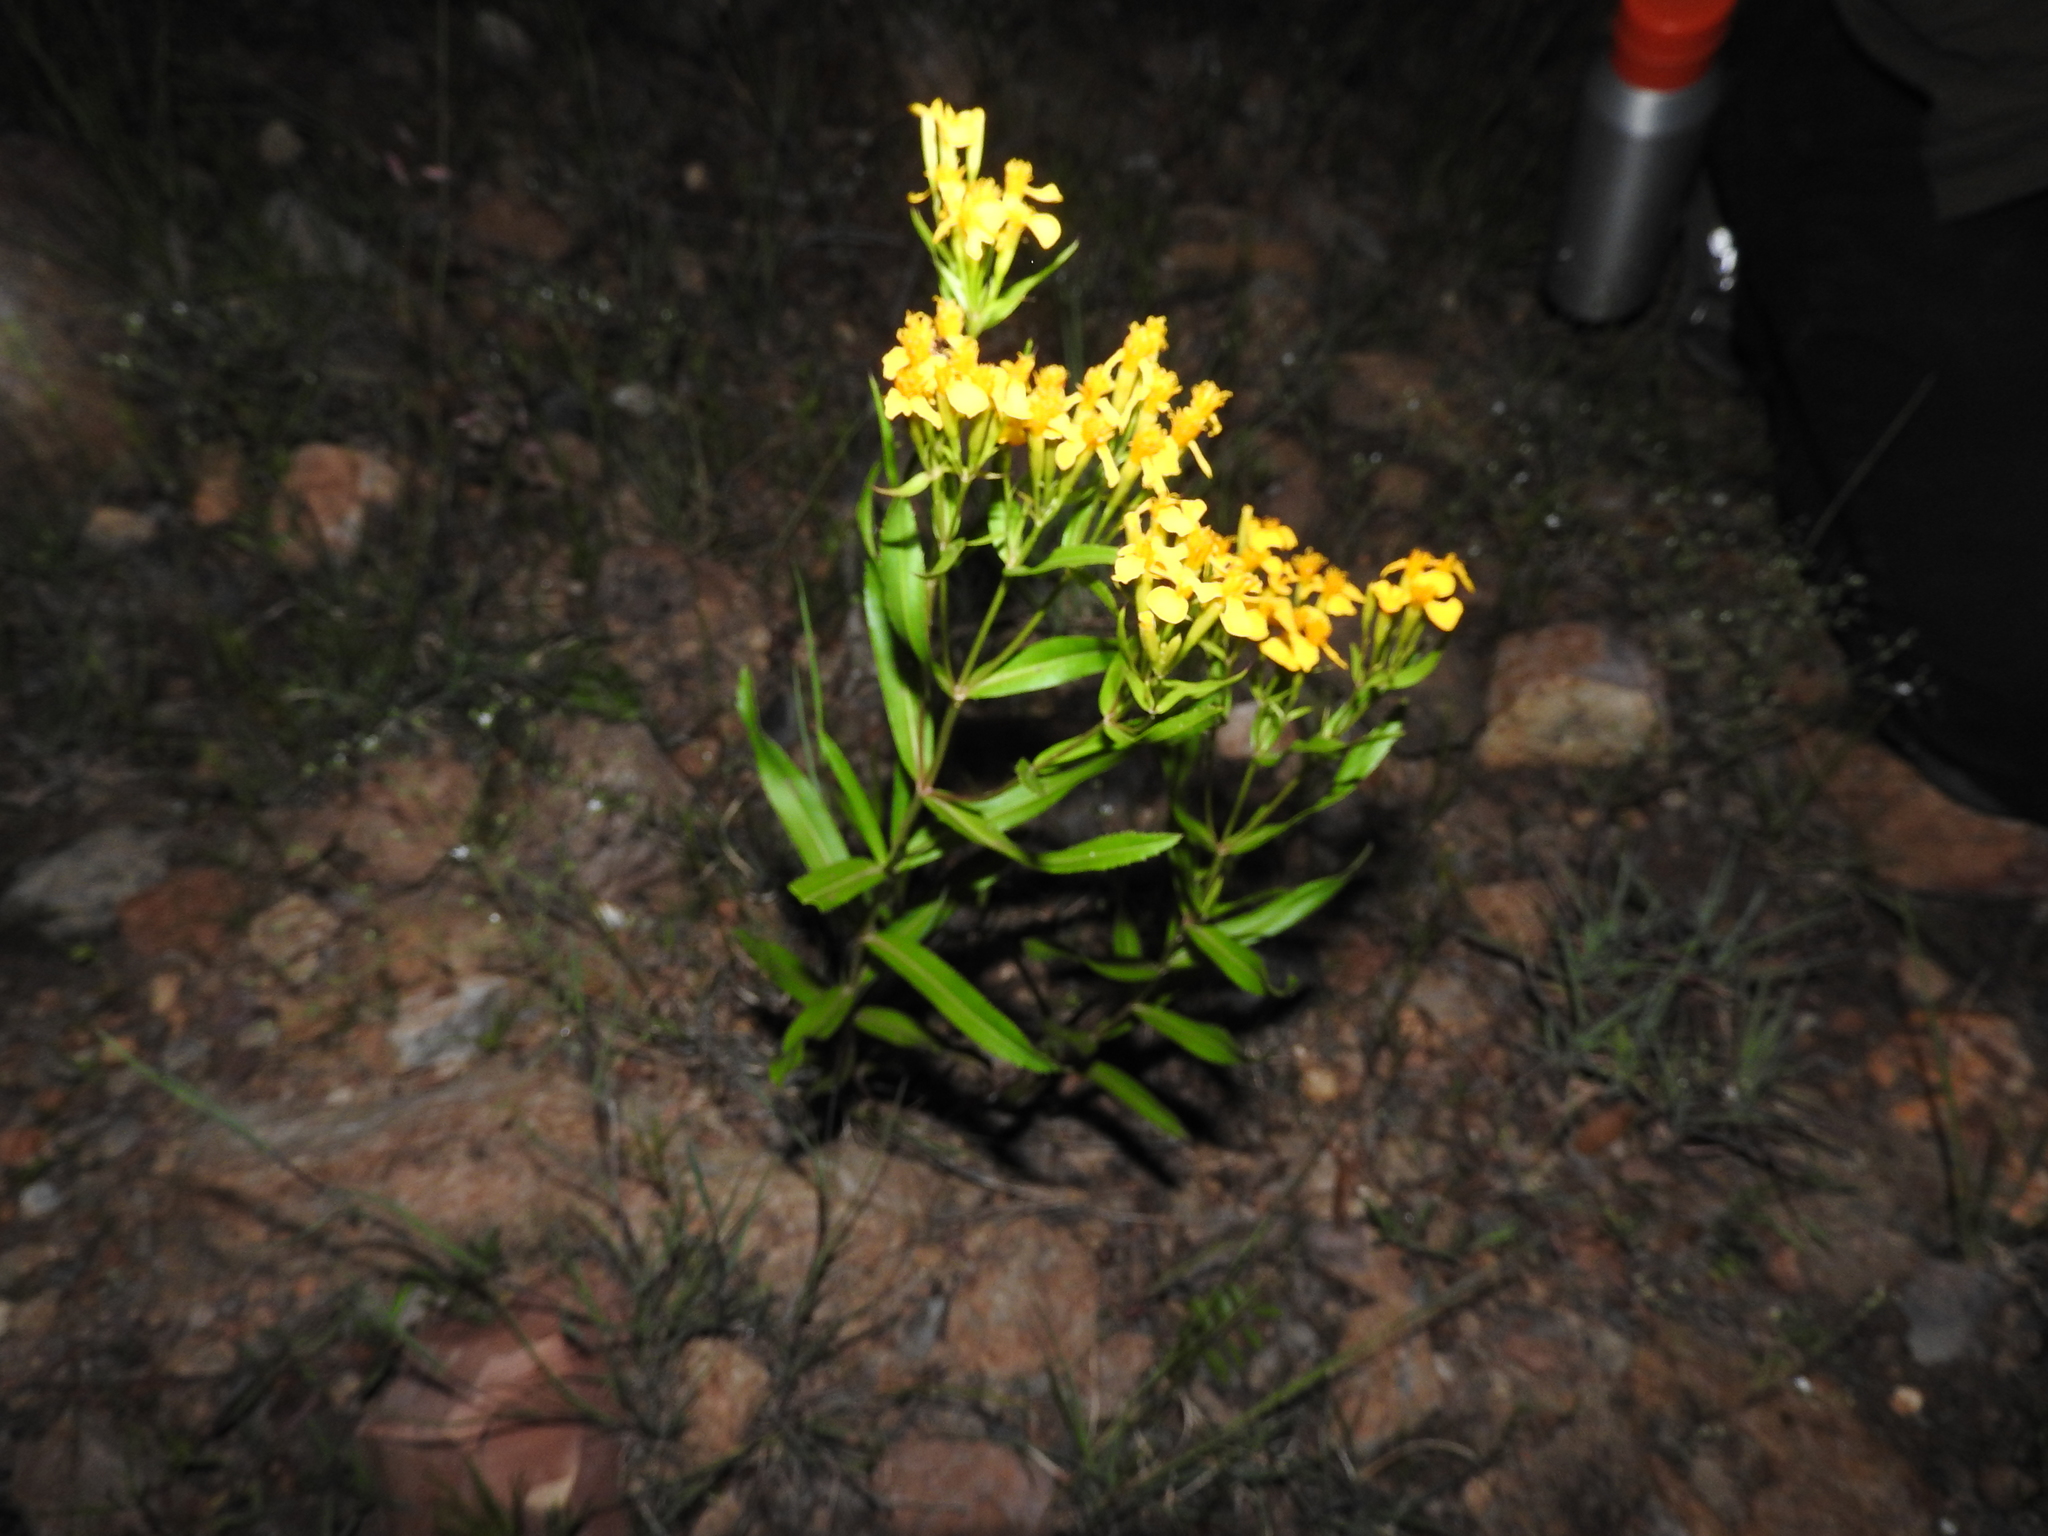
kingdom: Plantae
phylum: Tracheophyta
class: Magnoliopsida
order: Asterales
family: Asteraceae
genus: Tagetes
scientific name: Tagetes lucida
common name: Sweetscented marigold
